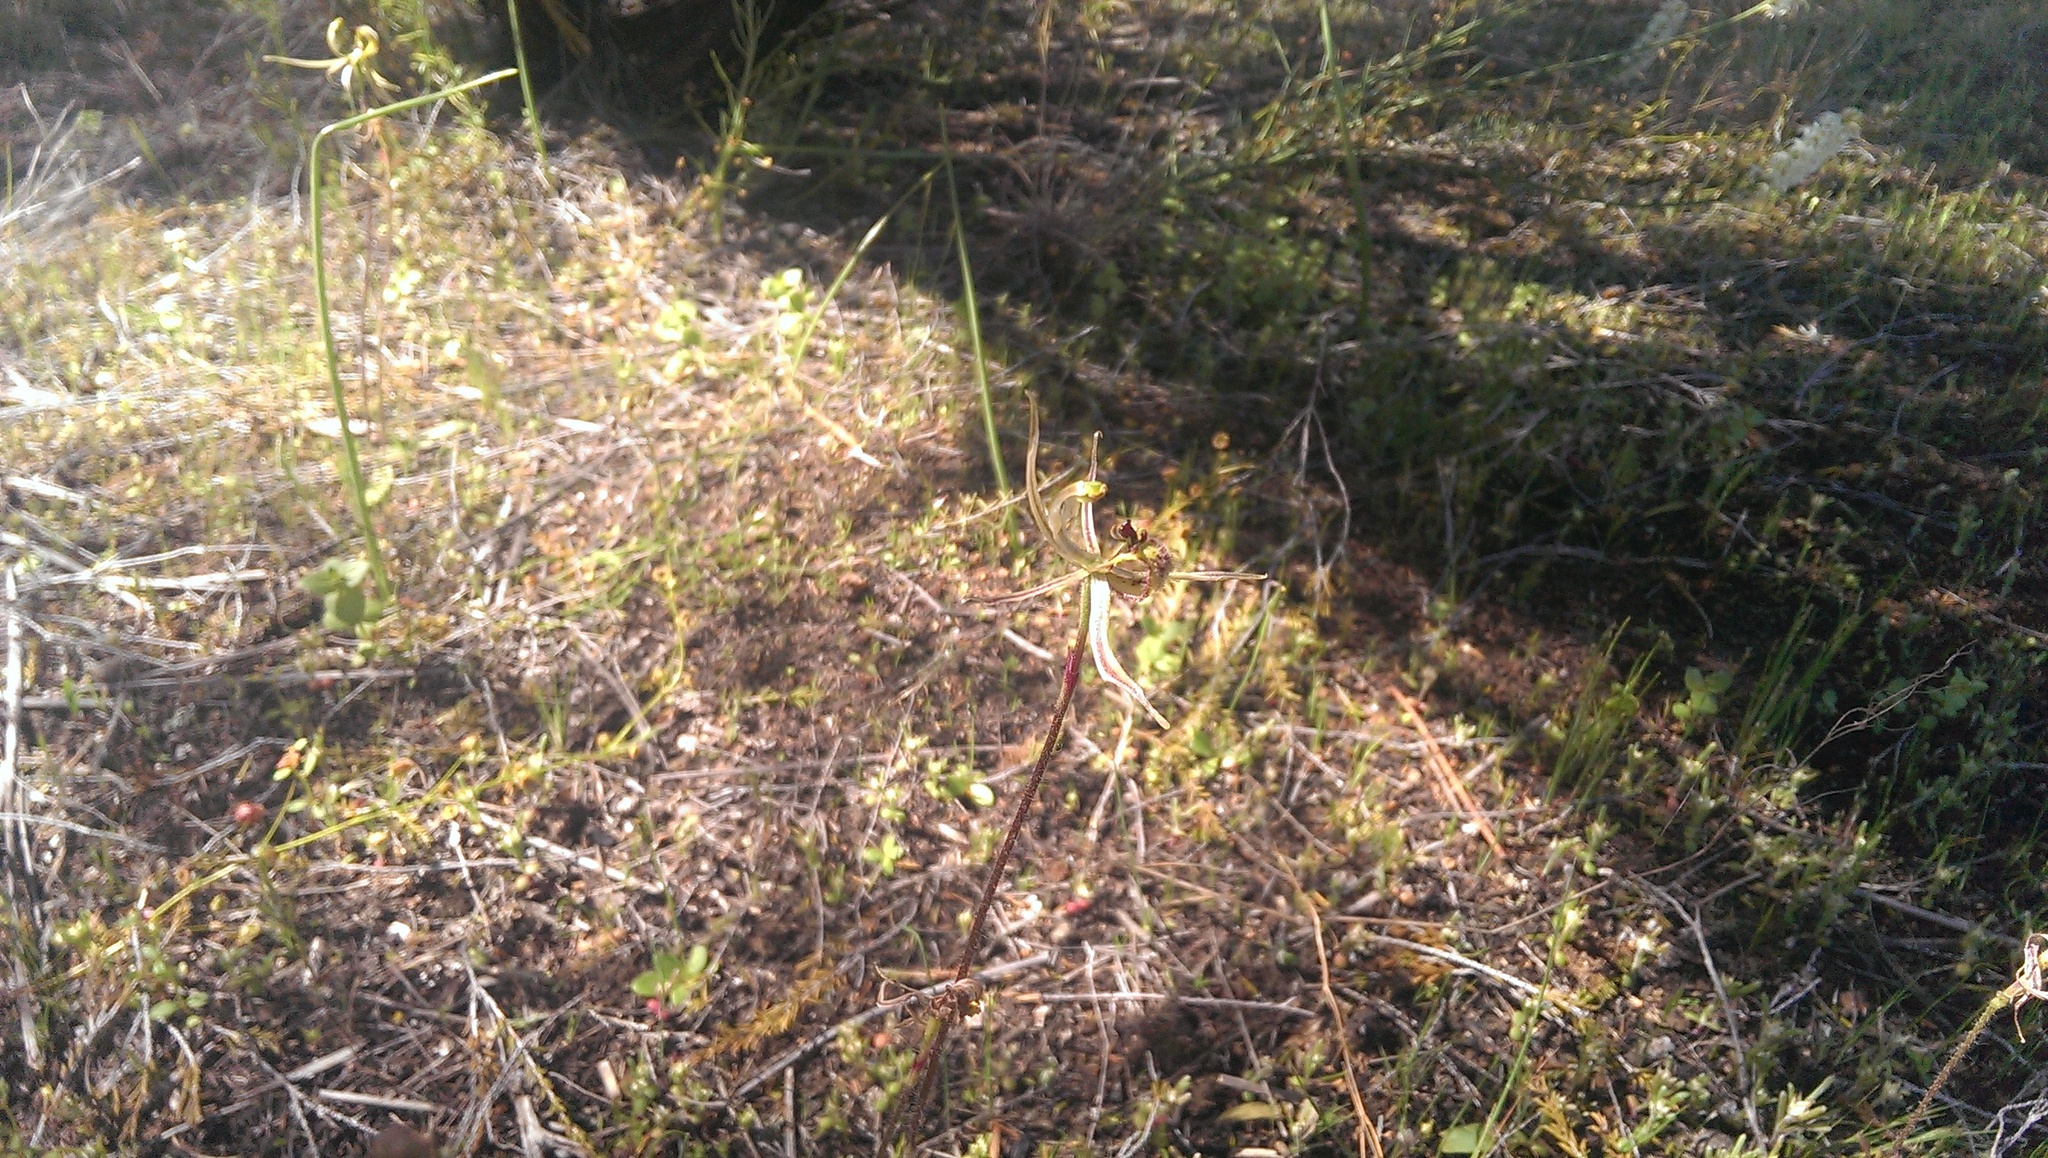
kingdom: Plantae
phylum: Tracheophyta
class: Liliopsida
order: Asparagales
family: Orchidaceae
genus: Caladenia
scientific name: Caladenia mesocera
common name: Narrow-lipped dragon orchid
